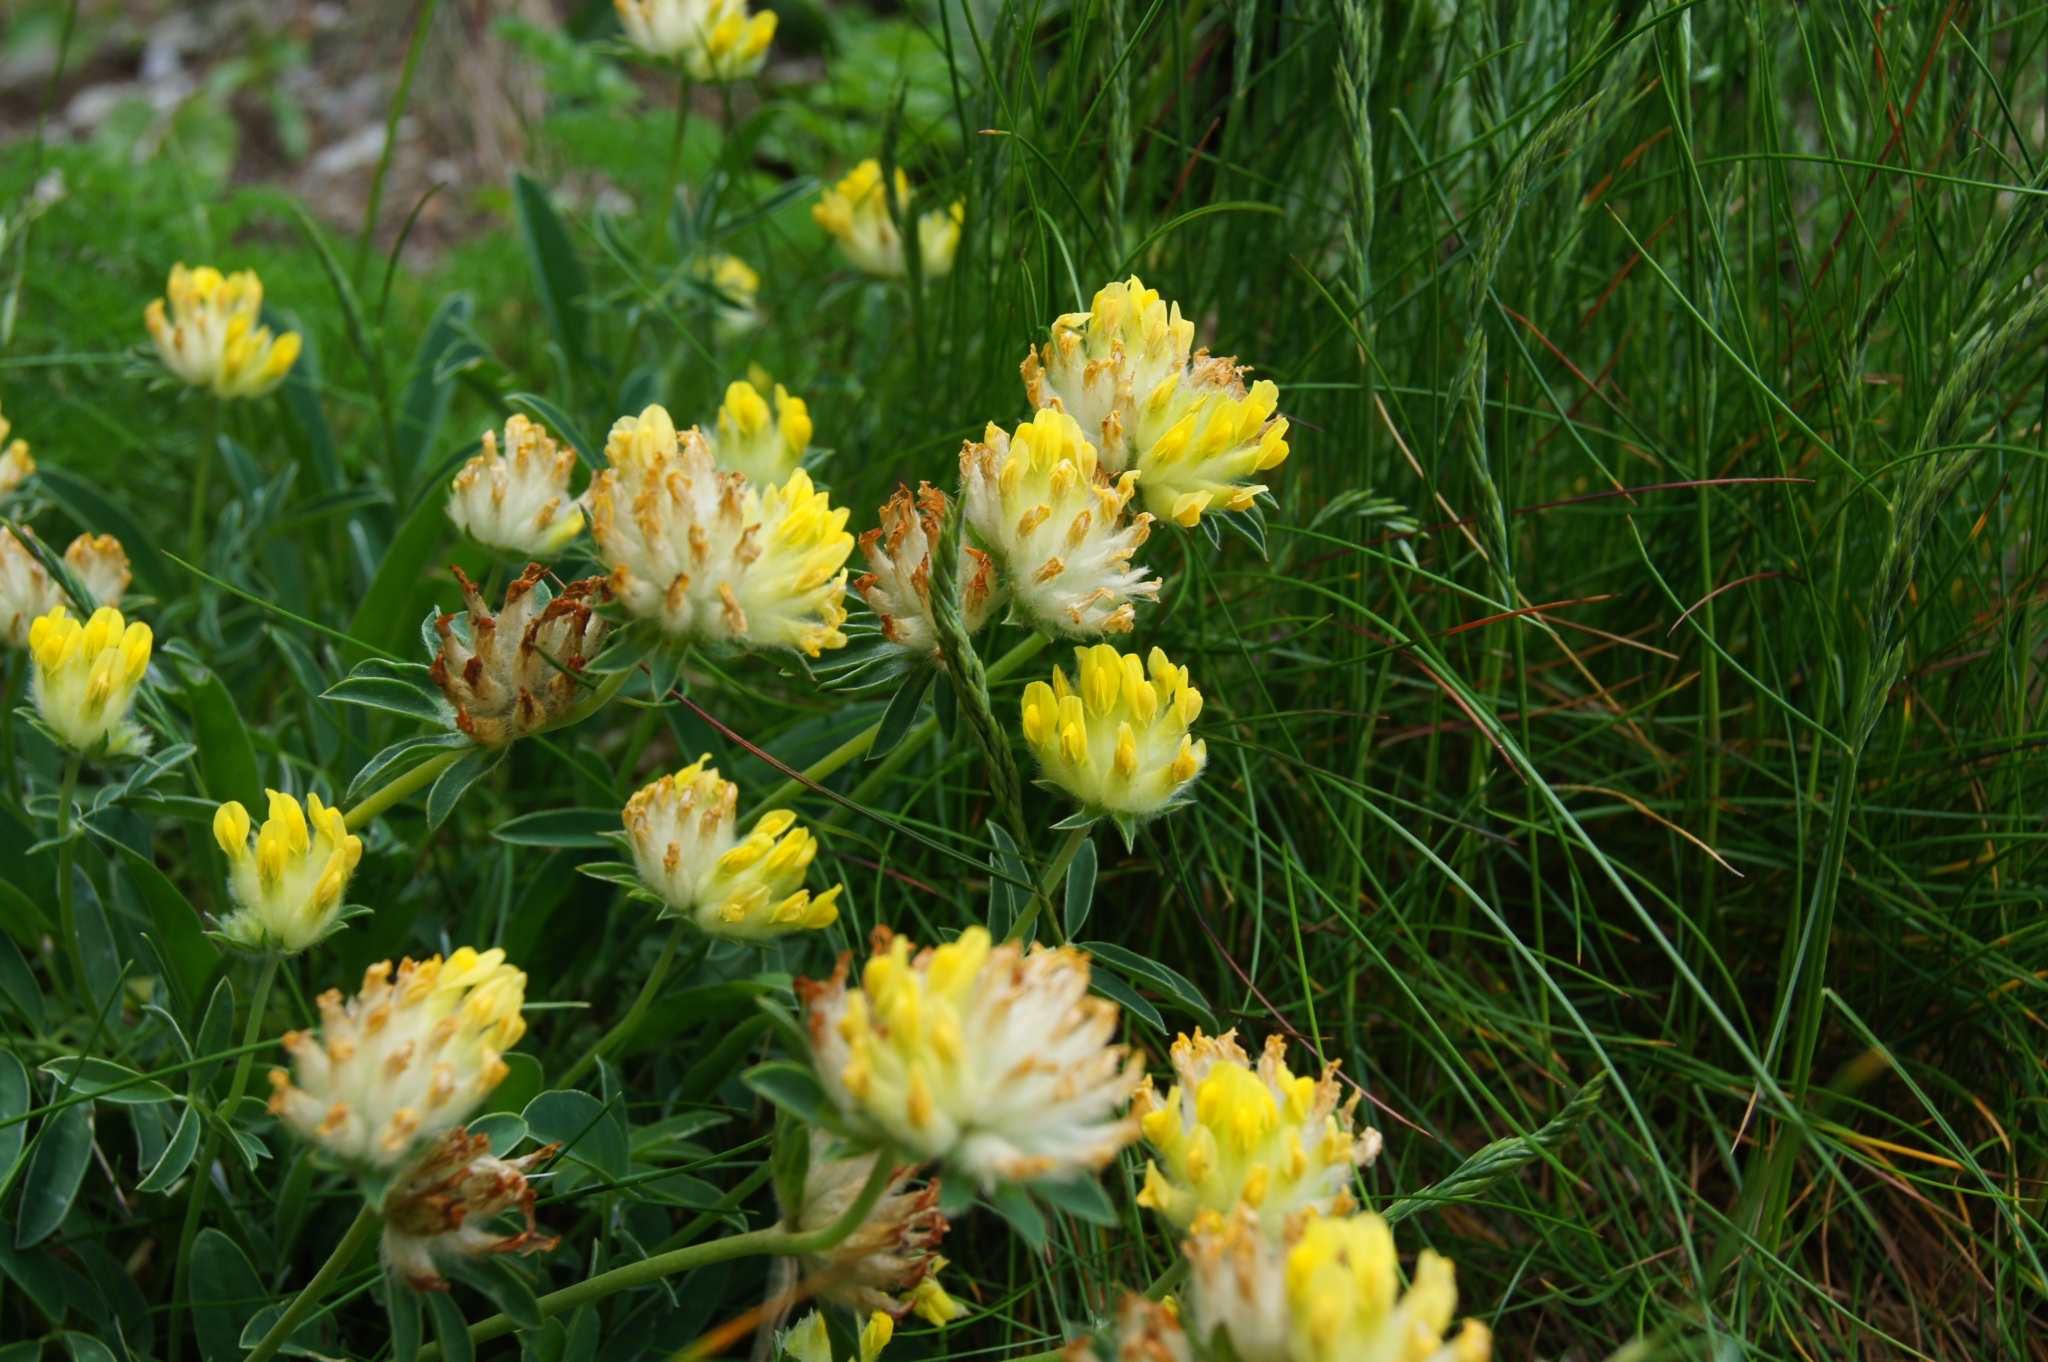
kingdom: Plantae
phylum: Tracheophyta
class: Magnoliopsida
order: Fabales
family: Fabaceae
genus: Anthyllis
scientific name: Anthyllis vulneraria
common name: Kidney vetch
